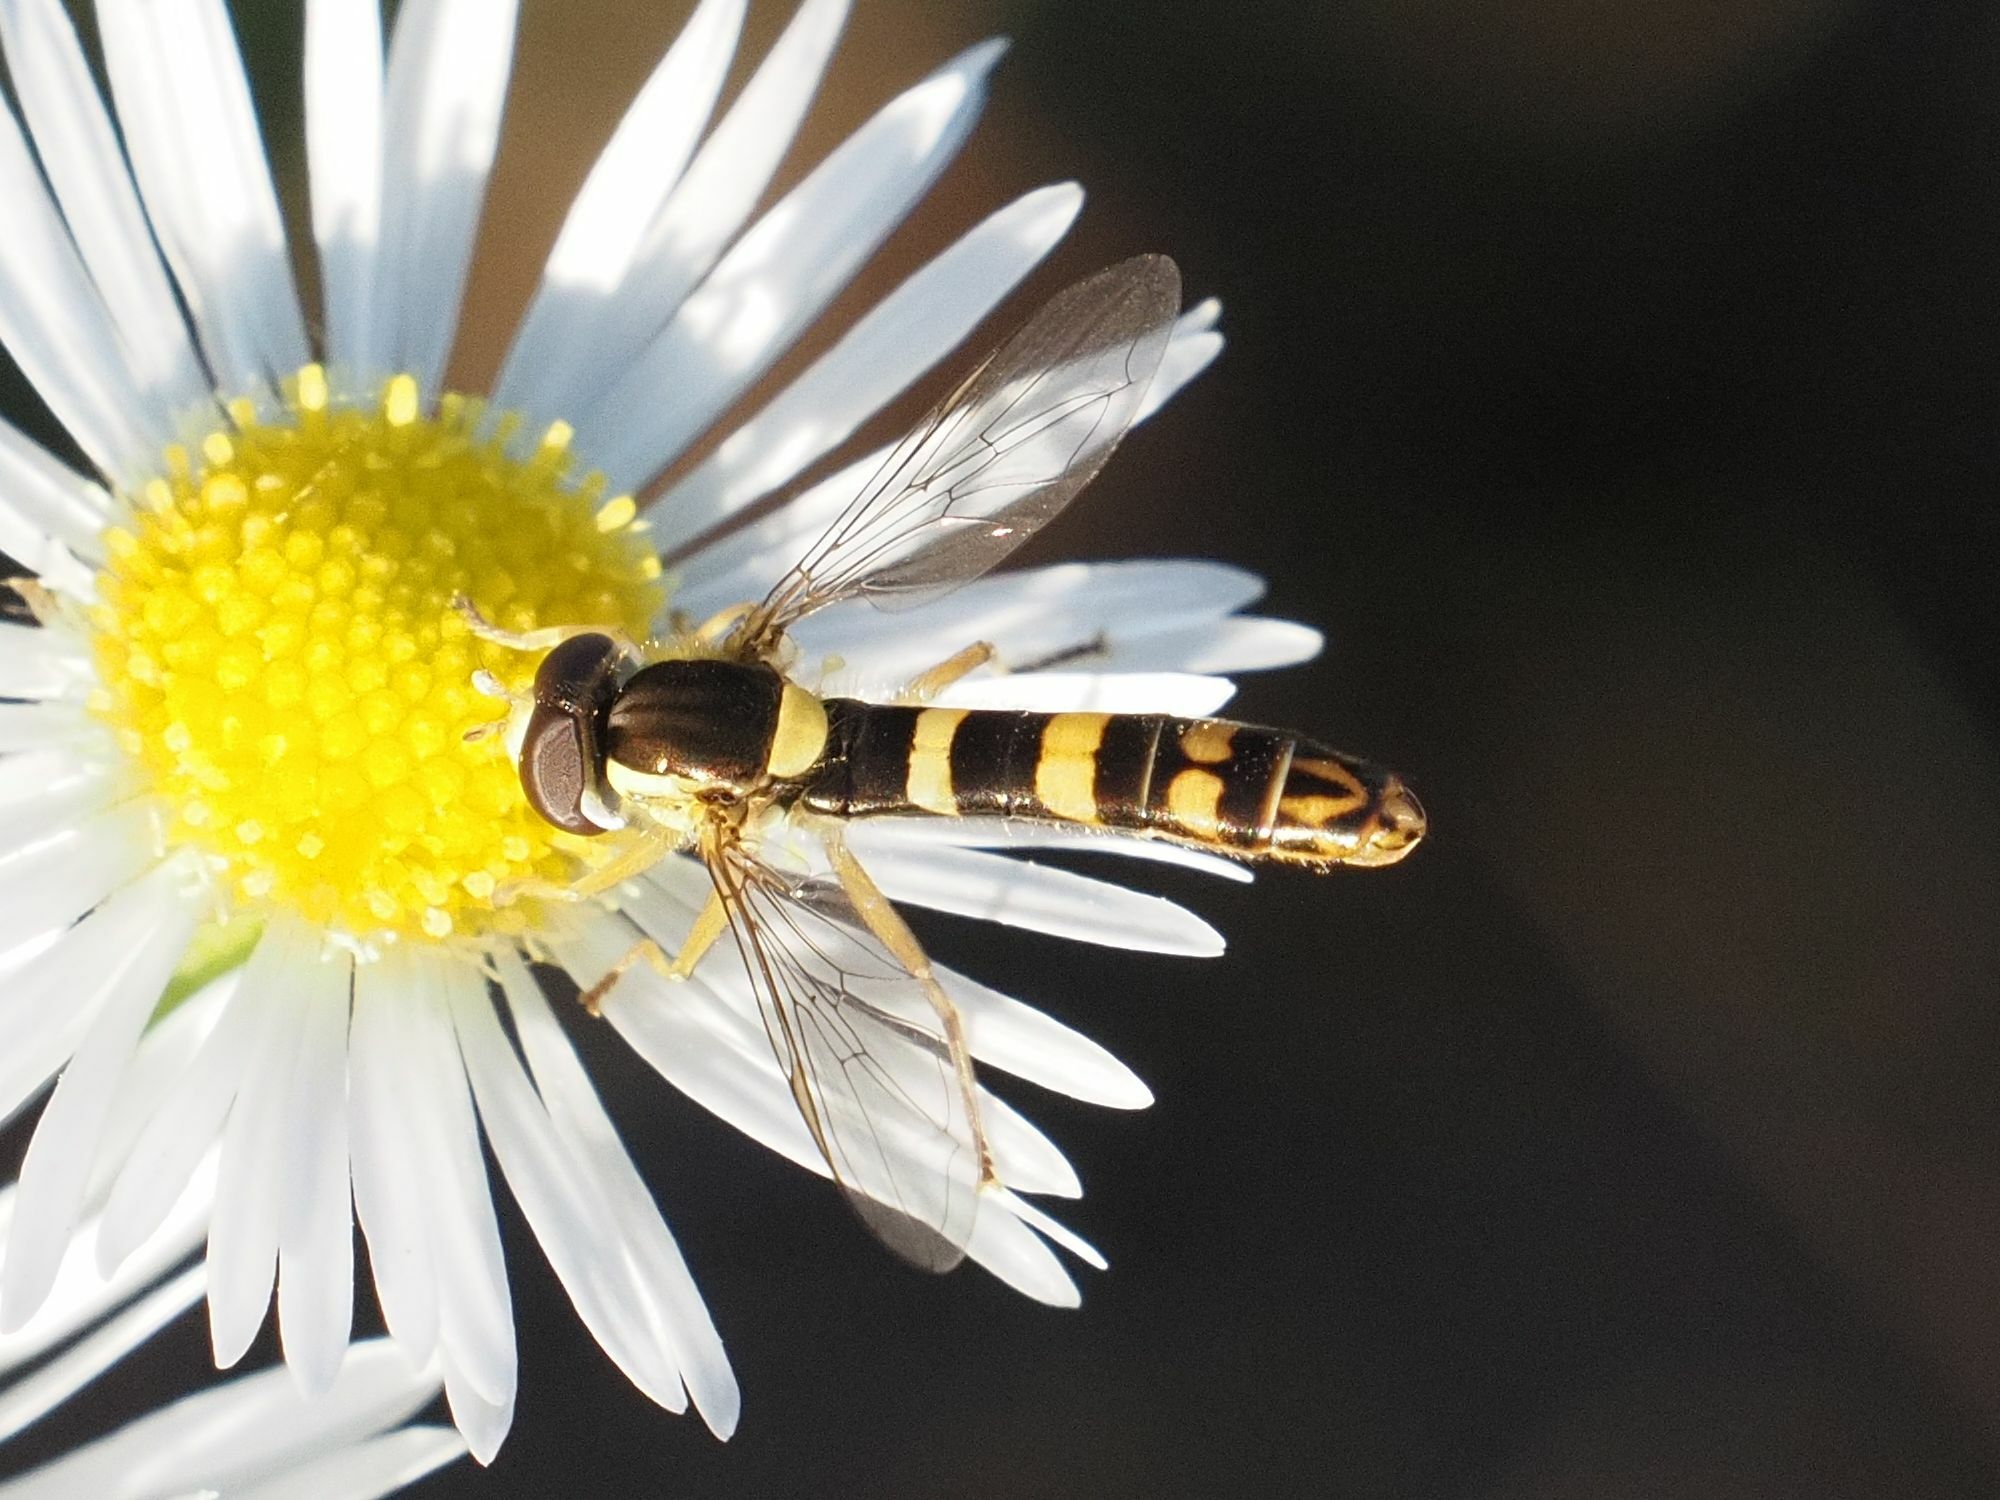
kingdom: Animalia
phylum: Arthropoda
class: Insecta
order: Diptera
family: Syrphidae
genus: Sphaerophoria
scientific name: Sphaerophoria scripta
